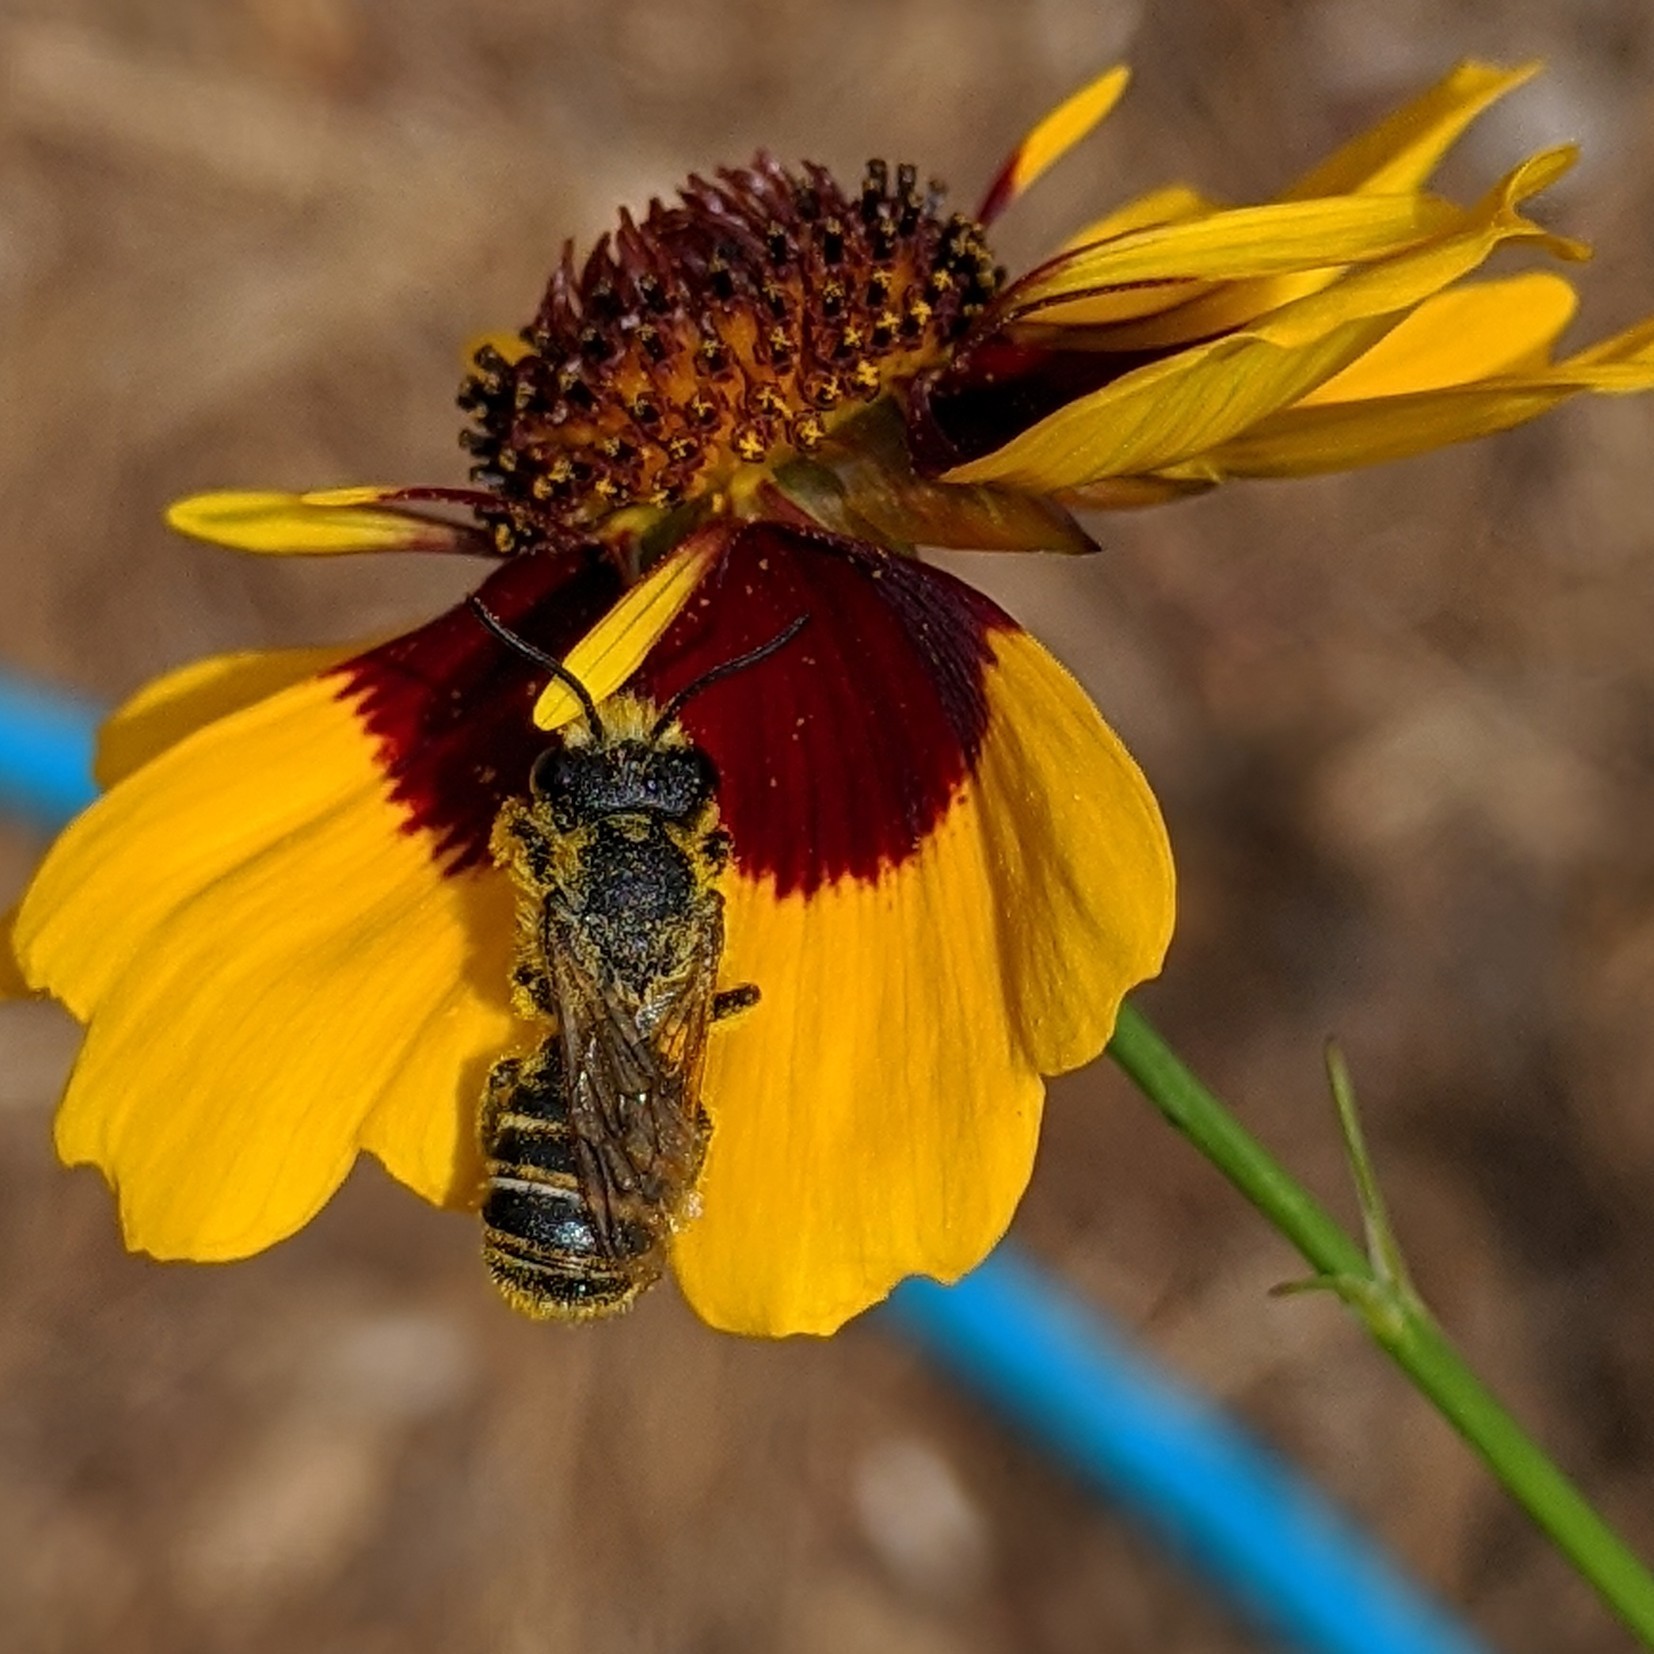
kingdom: Animalia
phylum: Arthropoda
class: Insecta
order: Hymenoptera
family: Megachilidae
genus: Megachile
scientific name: Megachile fidelis
